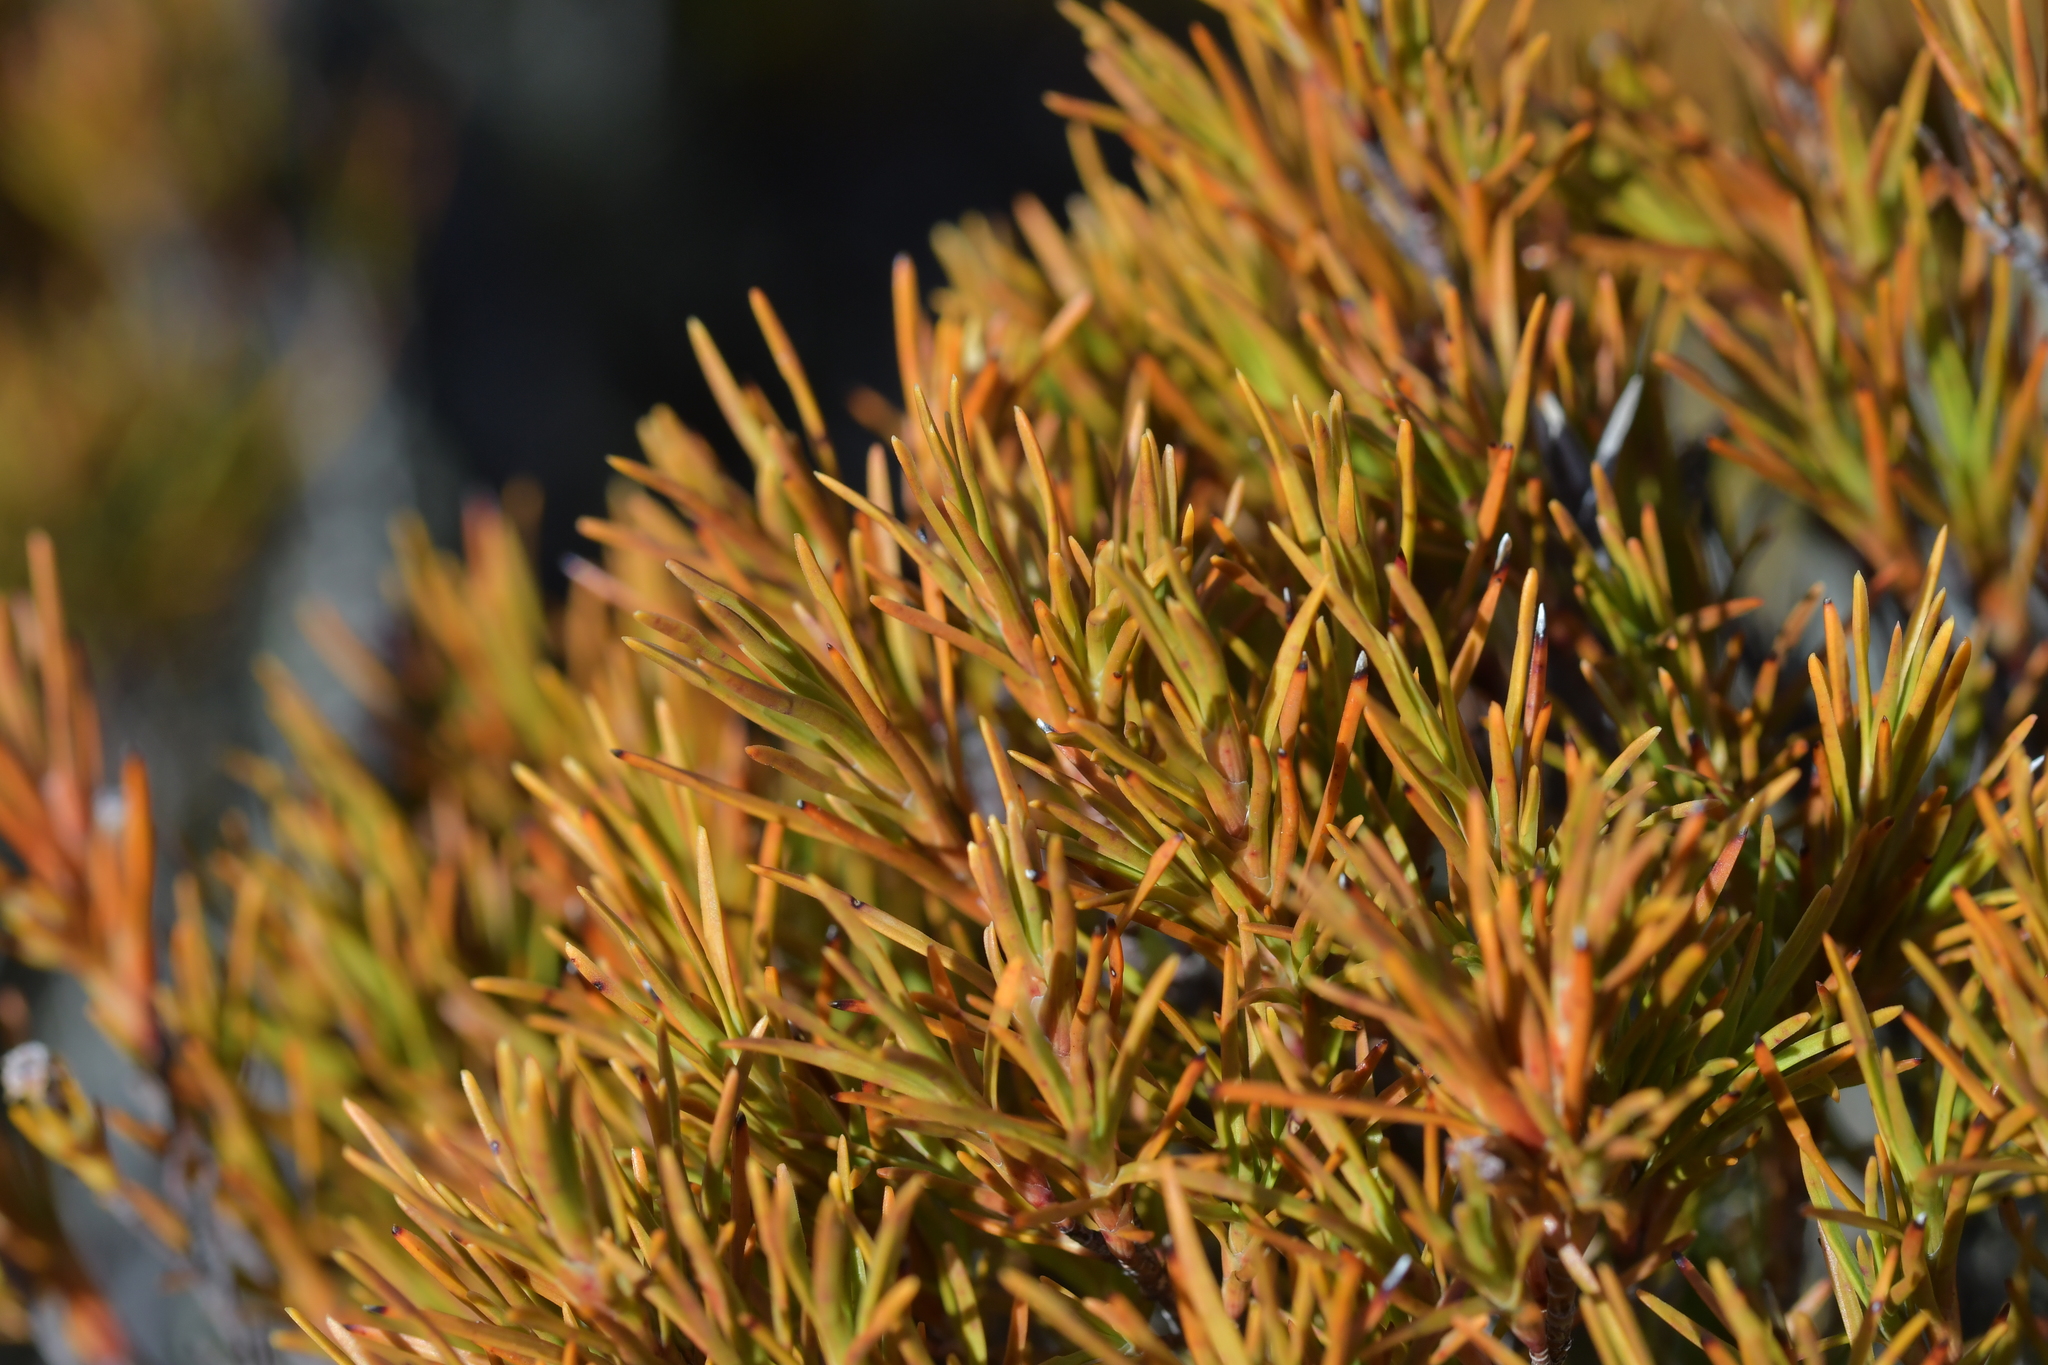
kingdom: Plantae
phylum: Tracheophyta
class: Magnoliopsida
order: Ericales
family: Ericaceae
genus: Dracophyllum
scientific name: Dracophyllum rosmarinifolium
